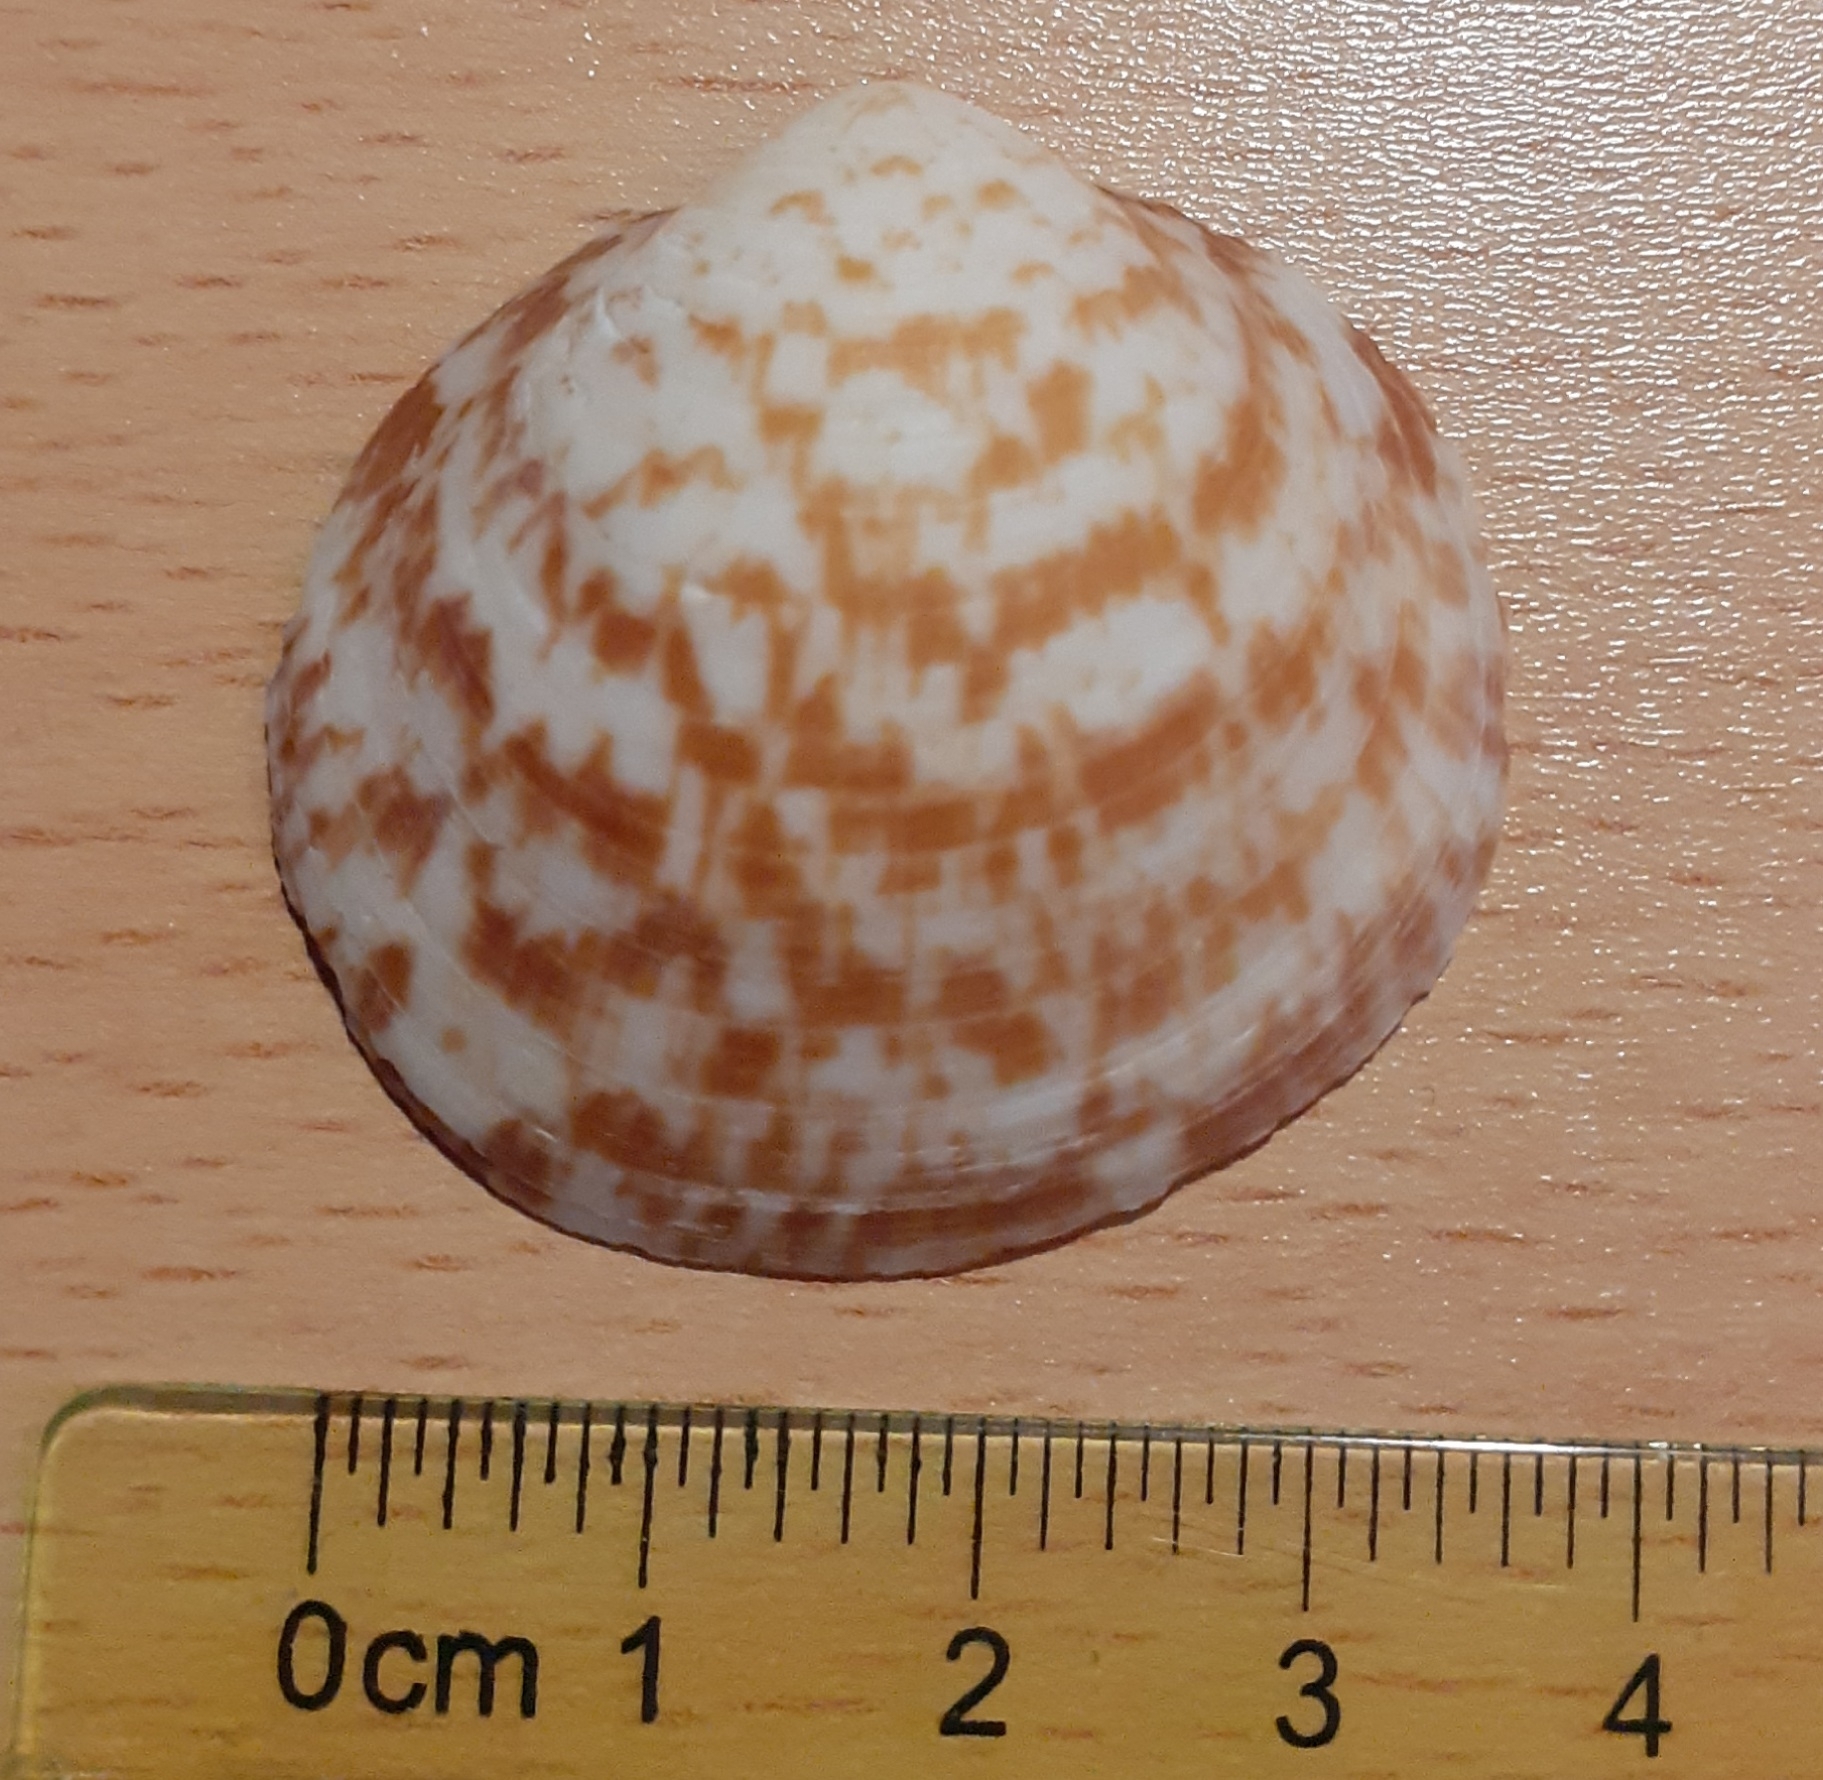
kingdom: Animalia
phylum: Mollusca
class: Bivalvia
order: Arcida
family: Glycymerididae
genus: Glycymeris
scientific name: Glycymeris glycymeris
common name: Dog-cockle
